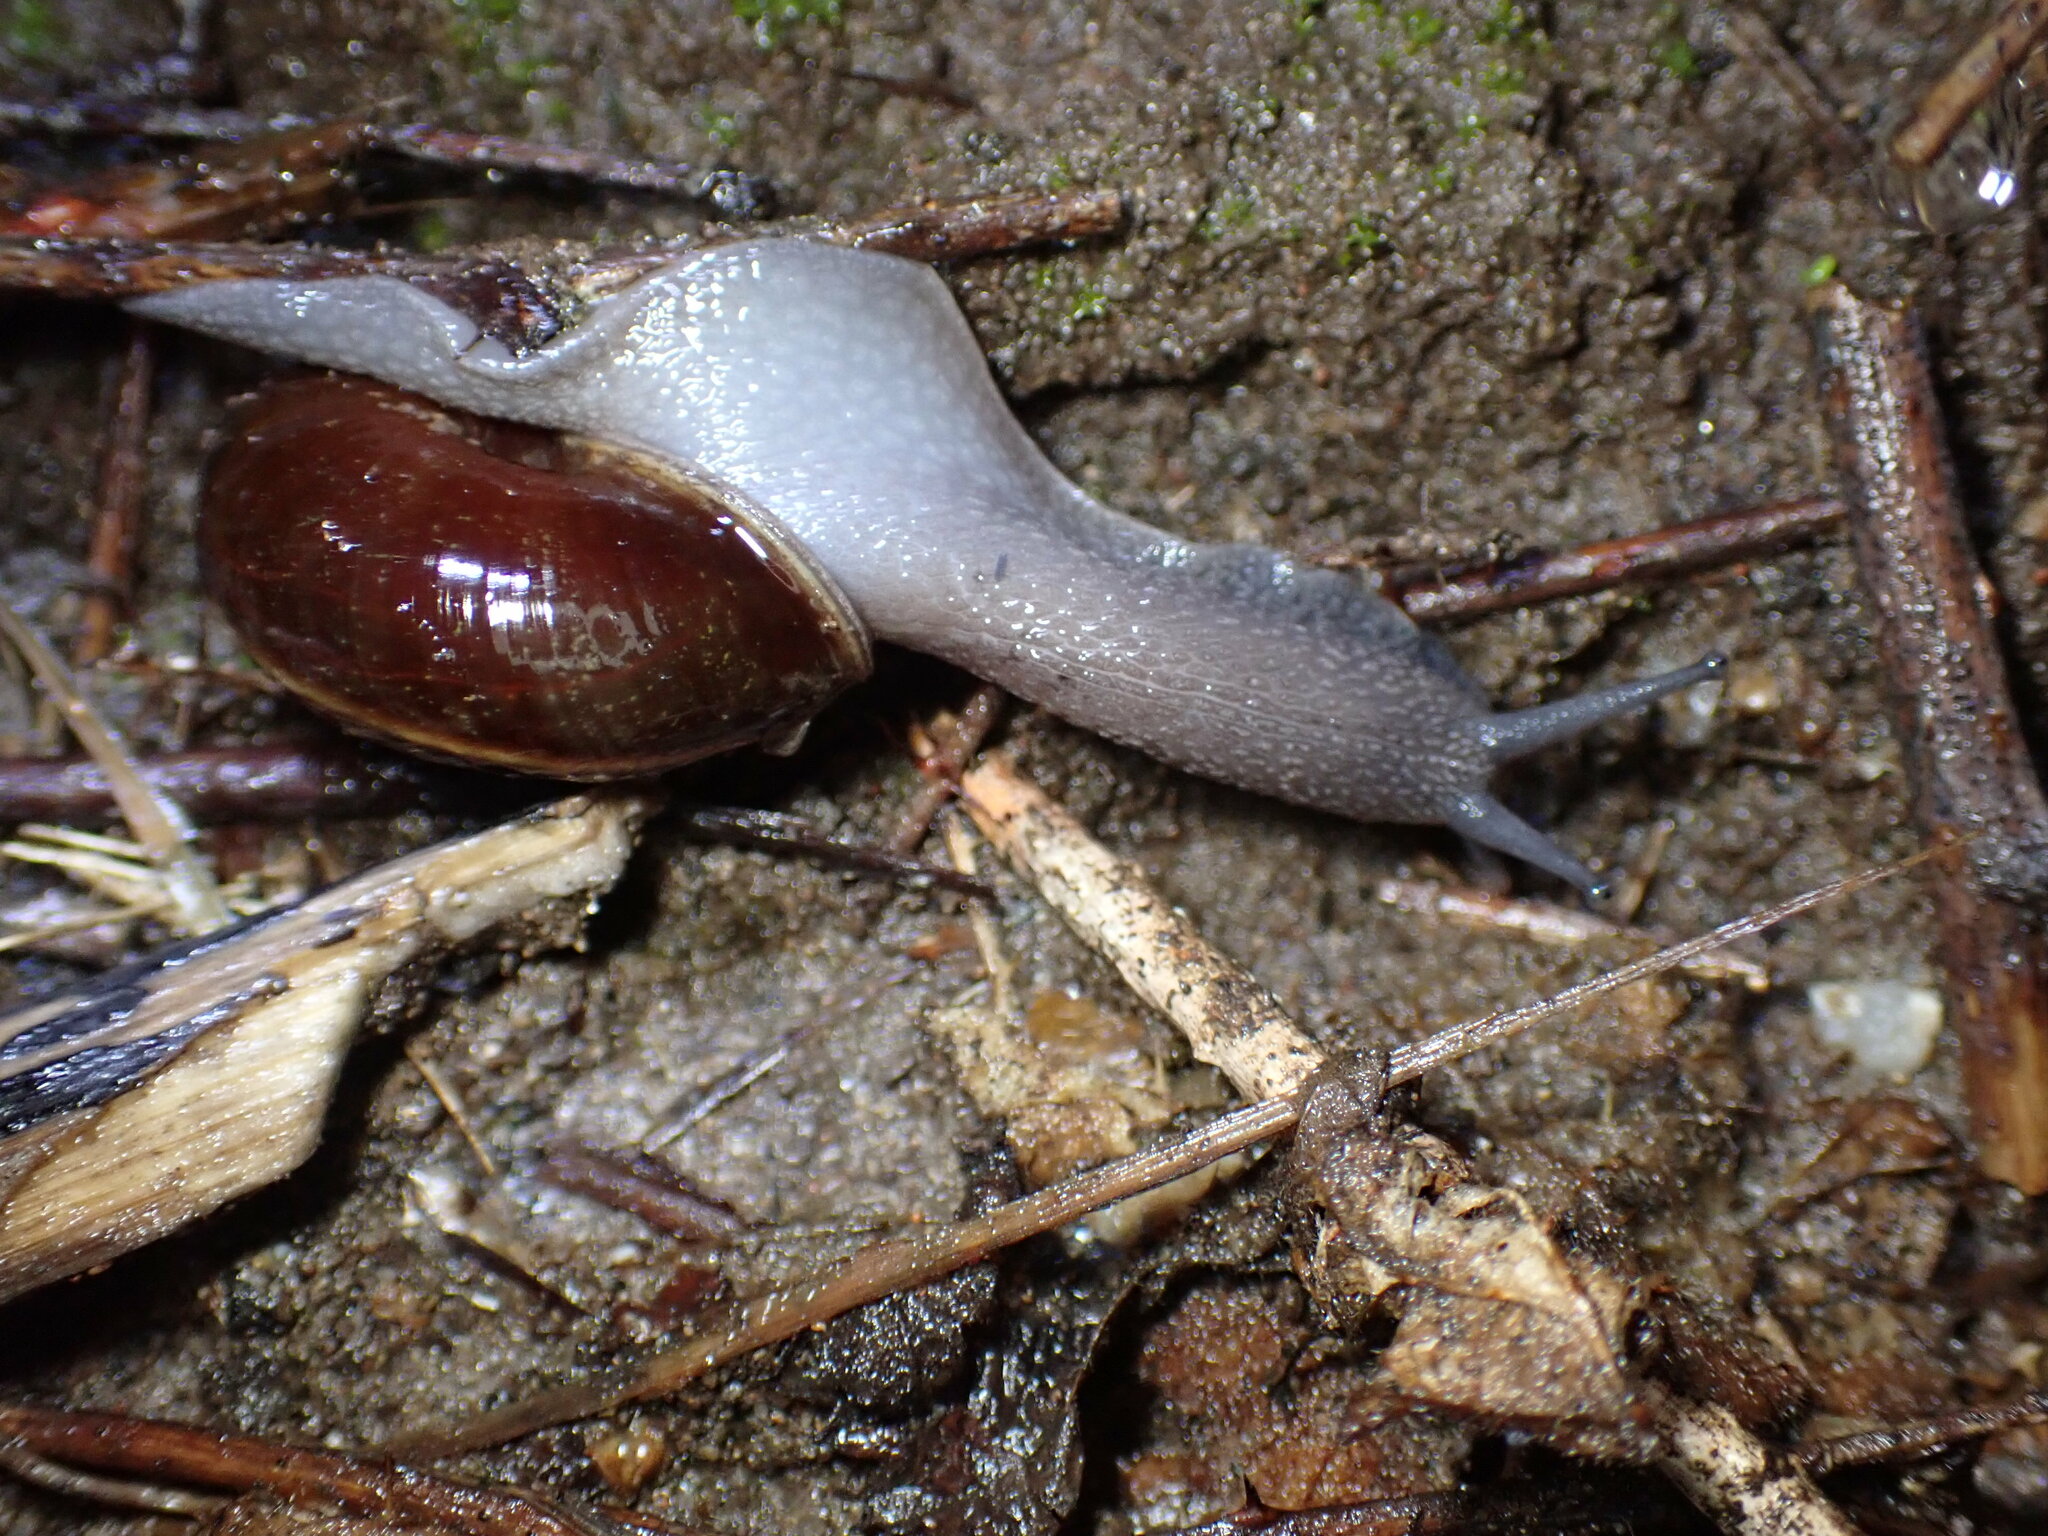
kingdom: Animalia
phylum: Mollusca
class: Gastropoda
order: Stylommatophora
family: Xanthonychidae
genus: Helminthoglypta
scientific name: Helminthoglypta sequoicola
